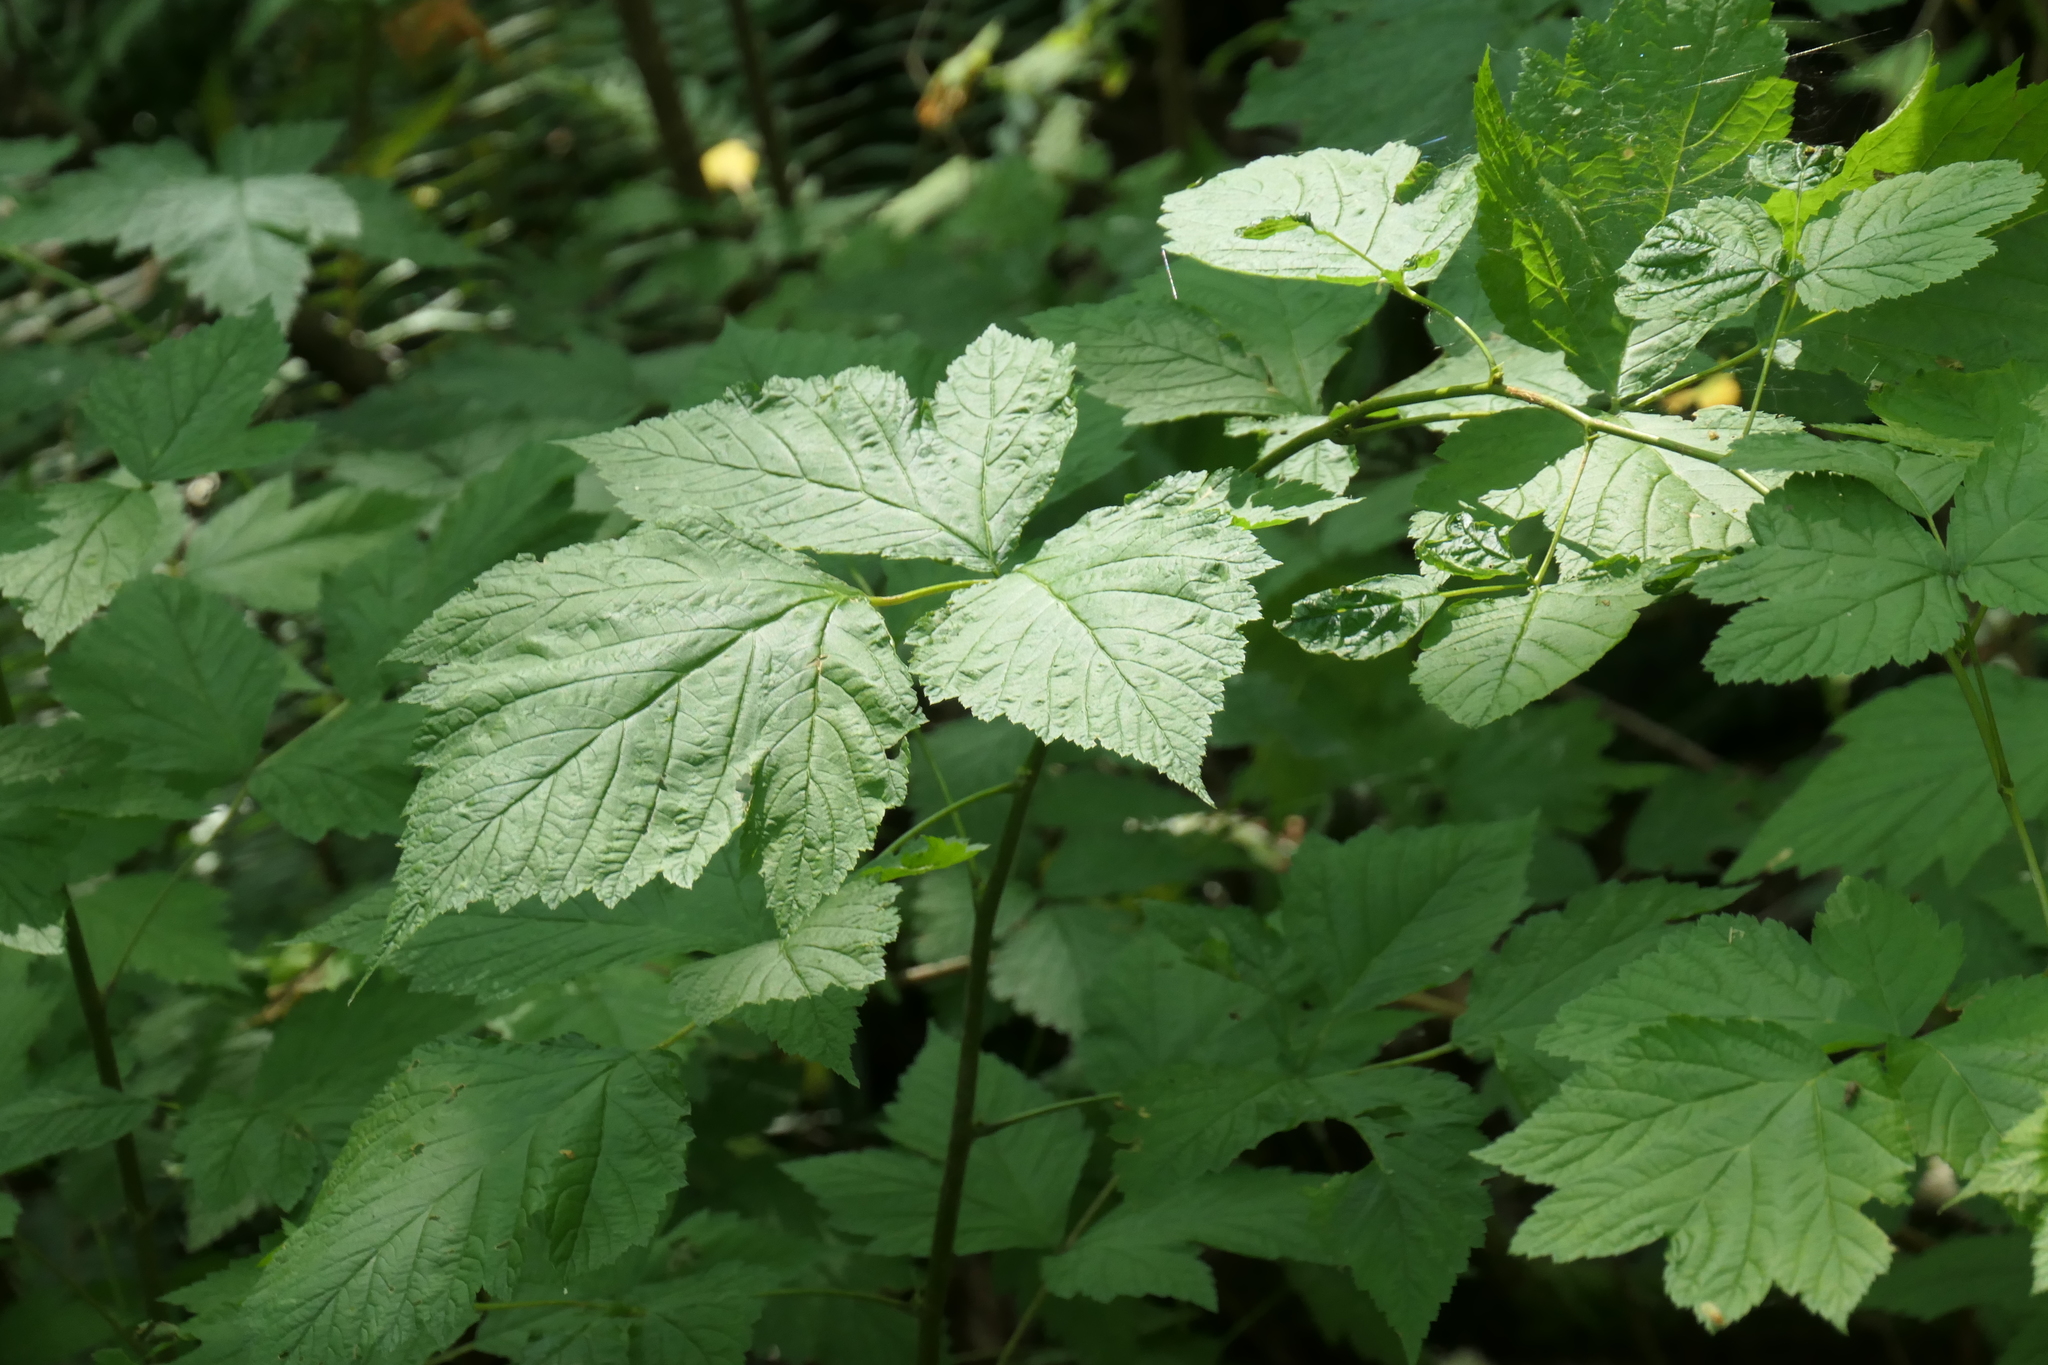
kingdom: Plantae
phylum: Tracheophyta
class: Magnoliopsida
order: Rosales
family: Rosaceae
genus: Rubus
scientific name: Rubus spectabilis
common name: Salmonberry
